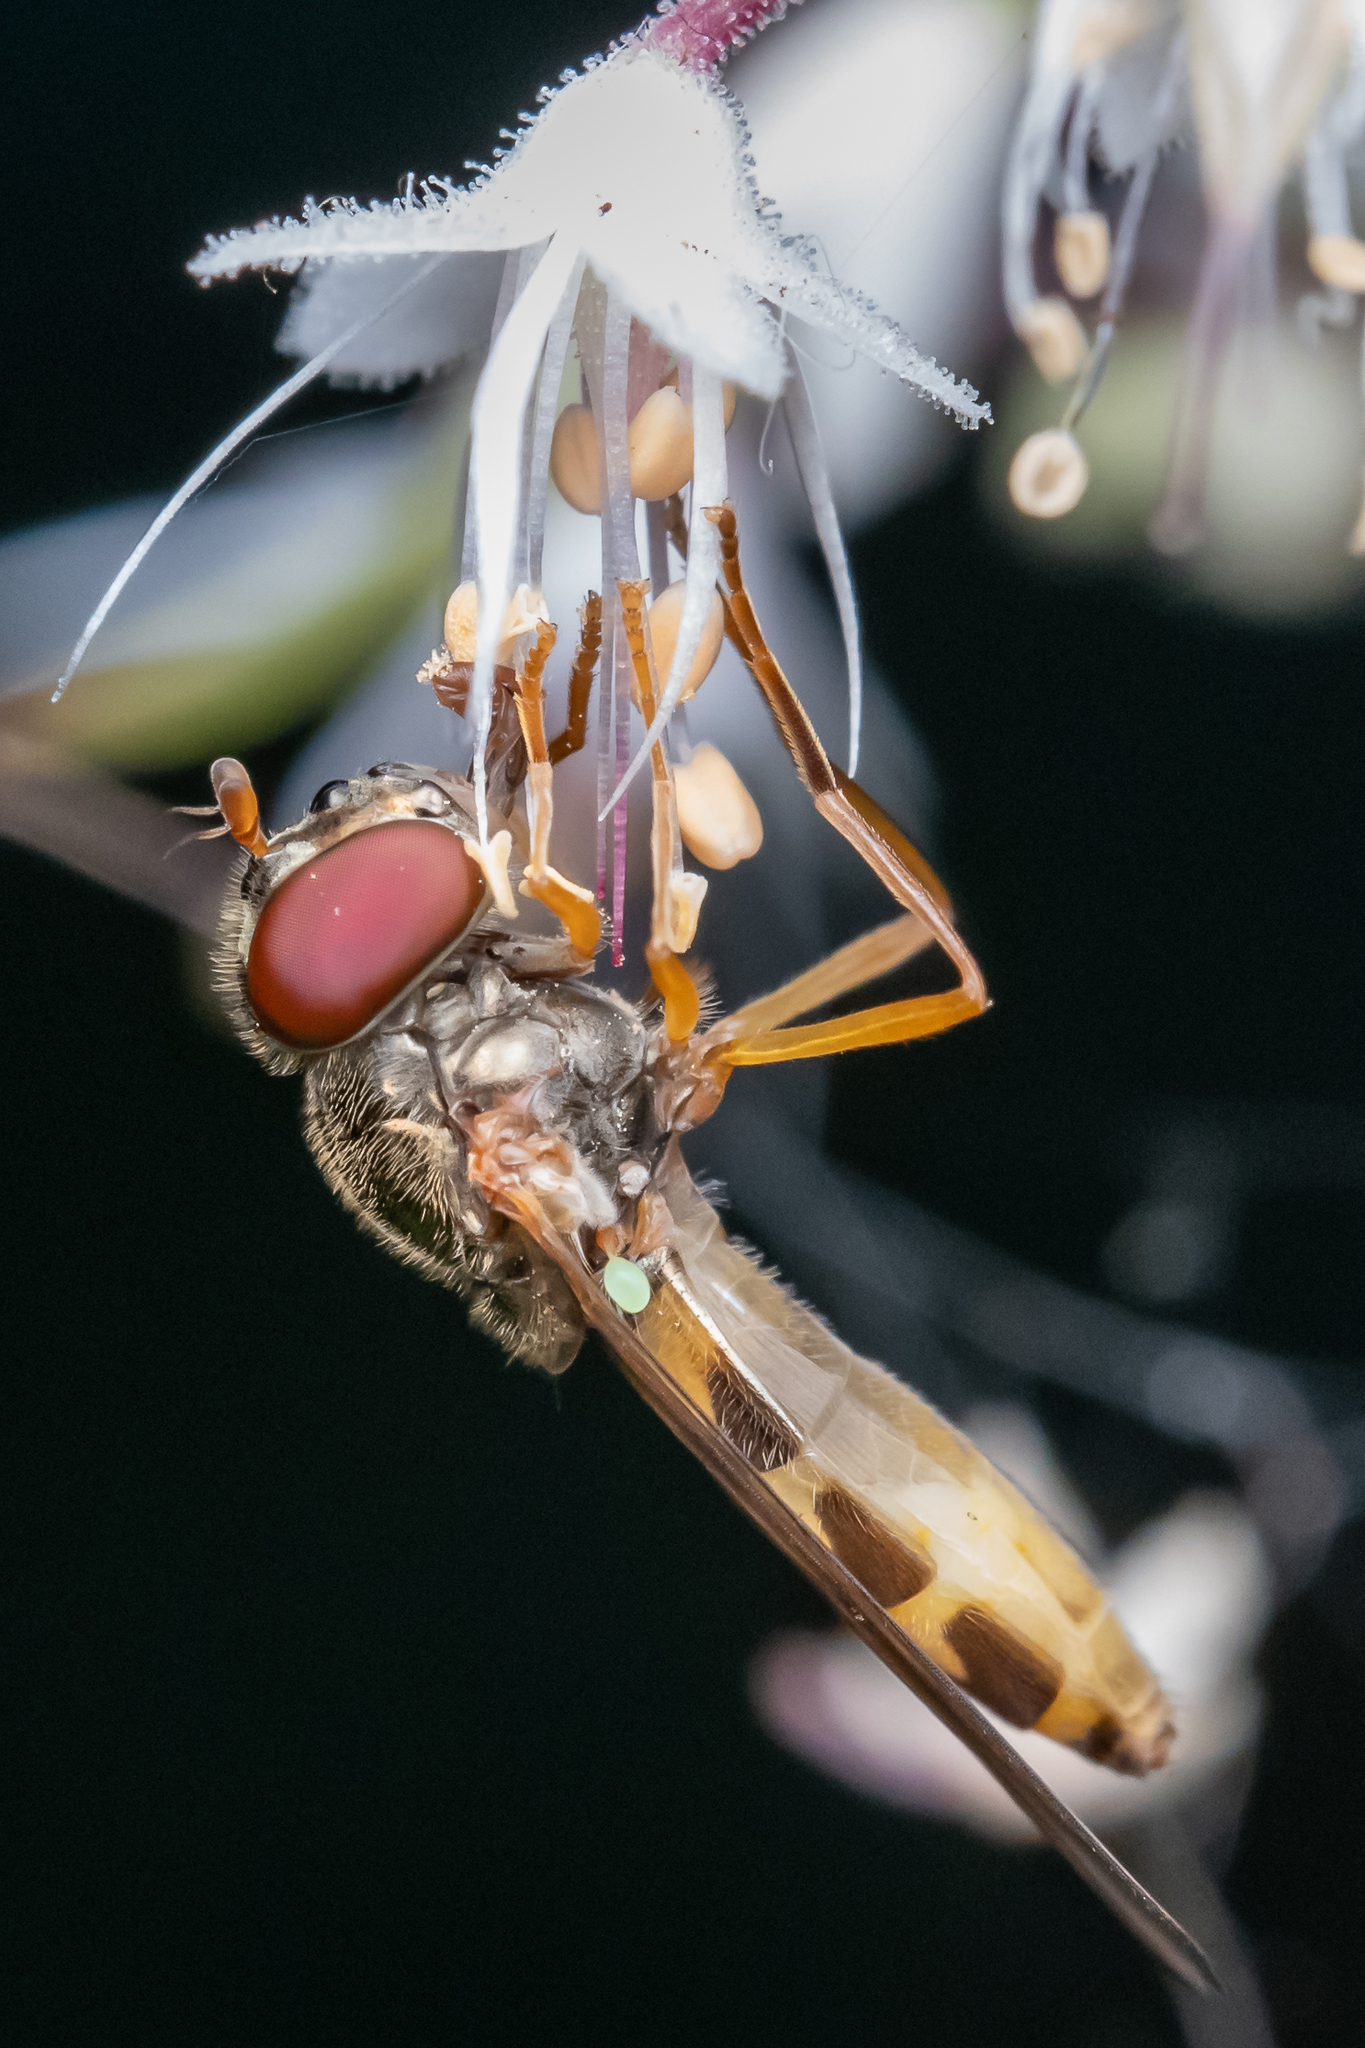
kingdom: Animalia
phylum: Arthropoda
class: Insecta
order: Diptera
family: Syrphidae
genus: Melanostoma
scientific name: Melanostoma mellina
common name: Hover fly
